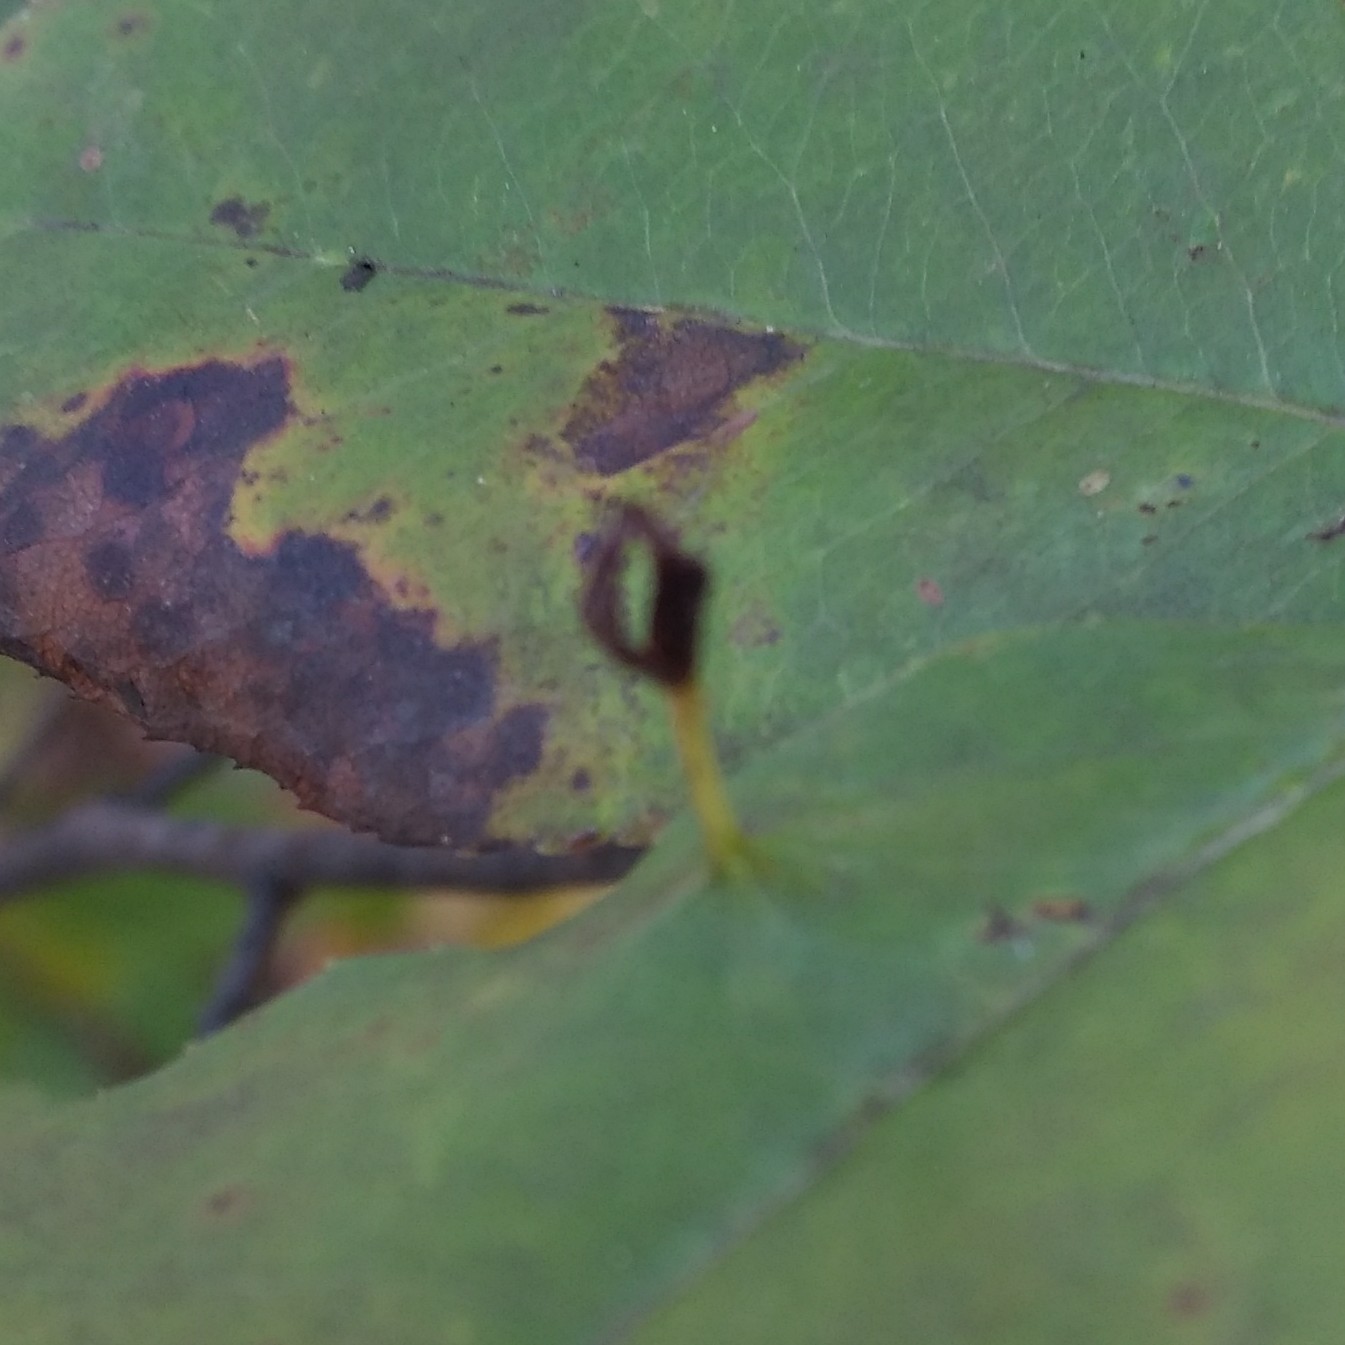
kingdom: Animalia
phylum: Arthropoda
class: Arachnida
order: Trombidiformes
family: Eriophyidae
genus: Eriophyes
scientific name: Eriophyes
